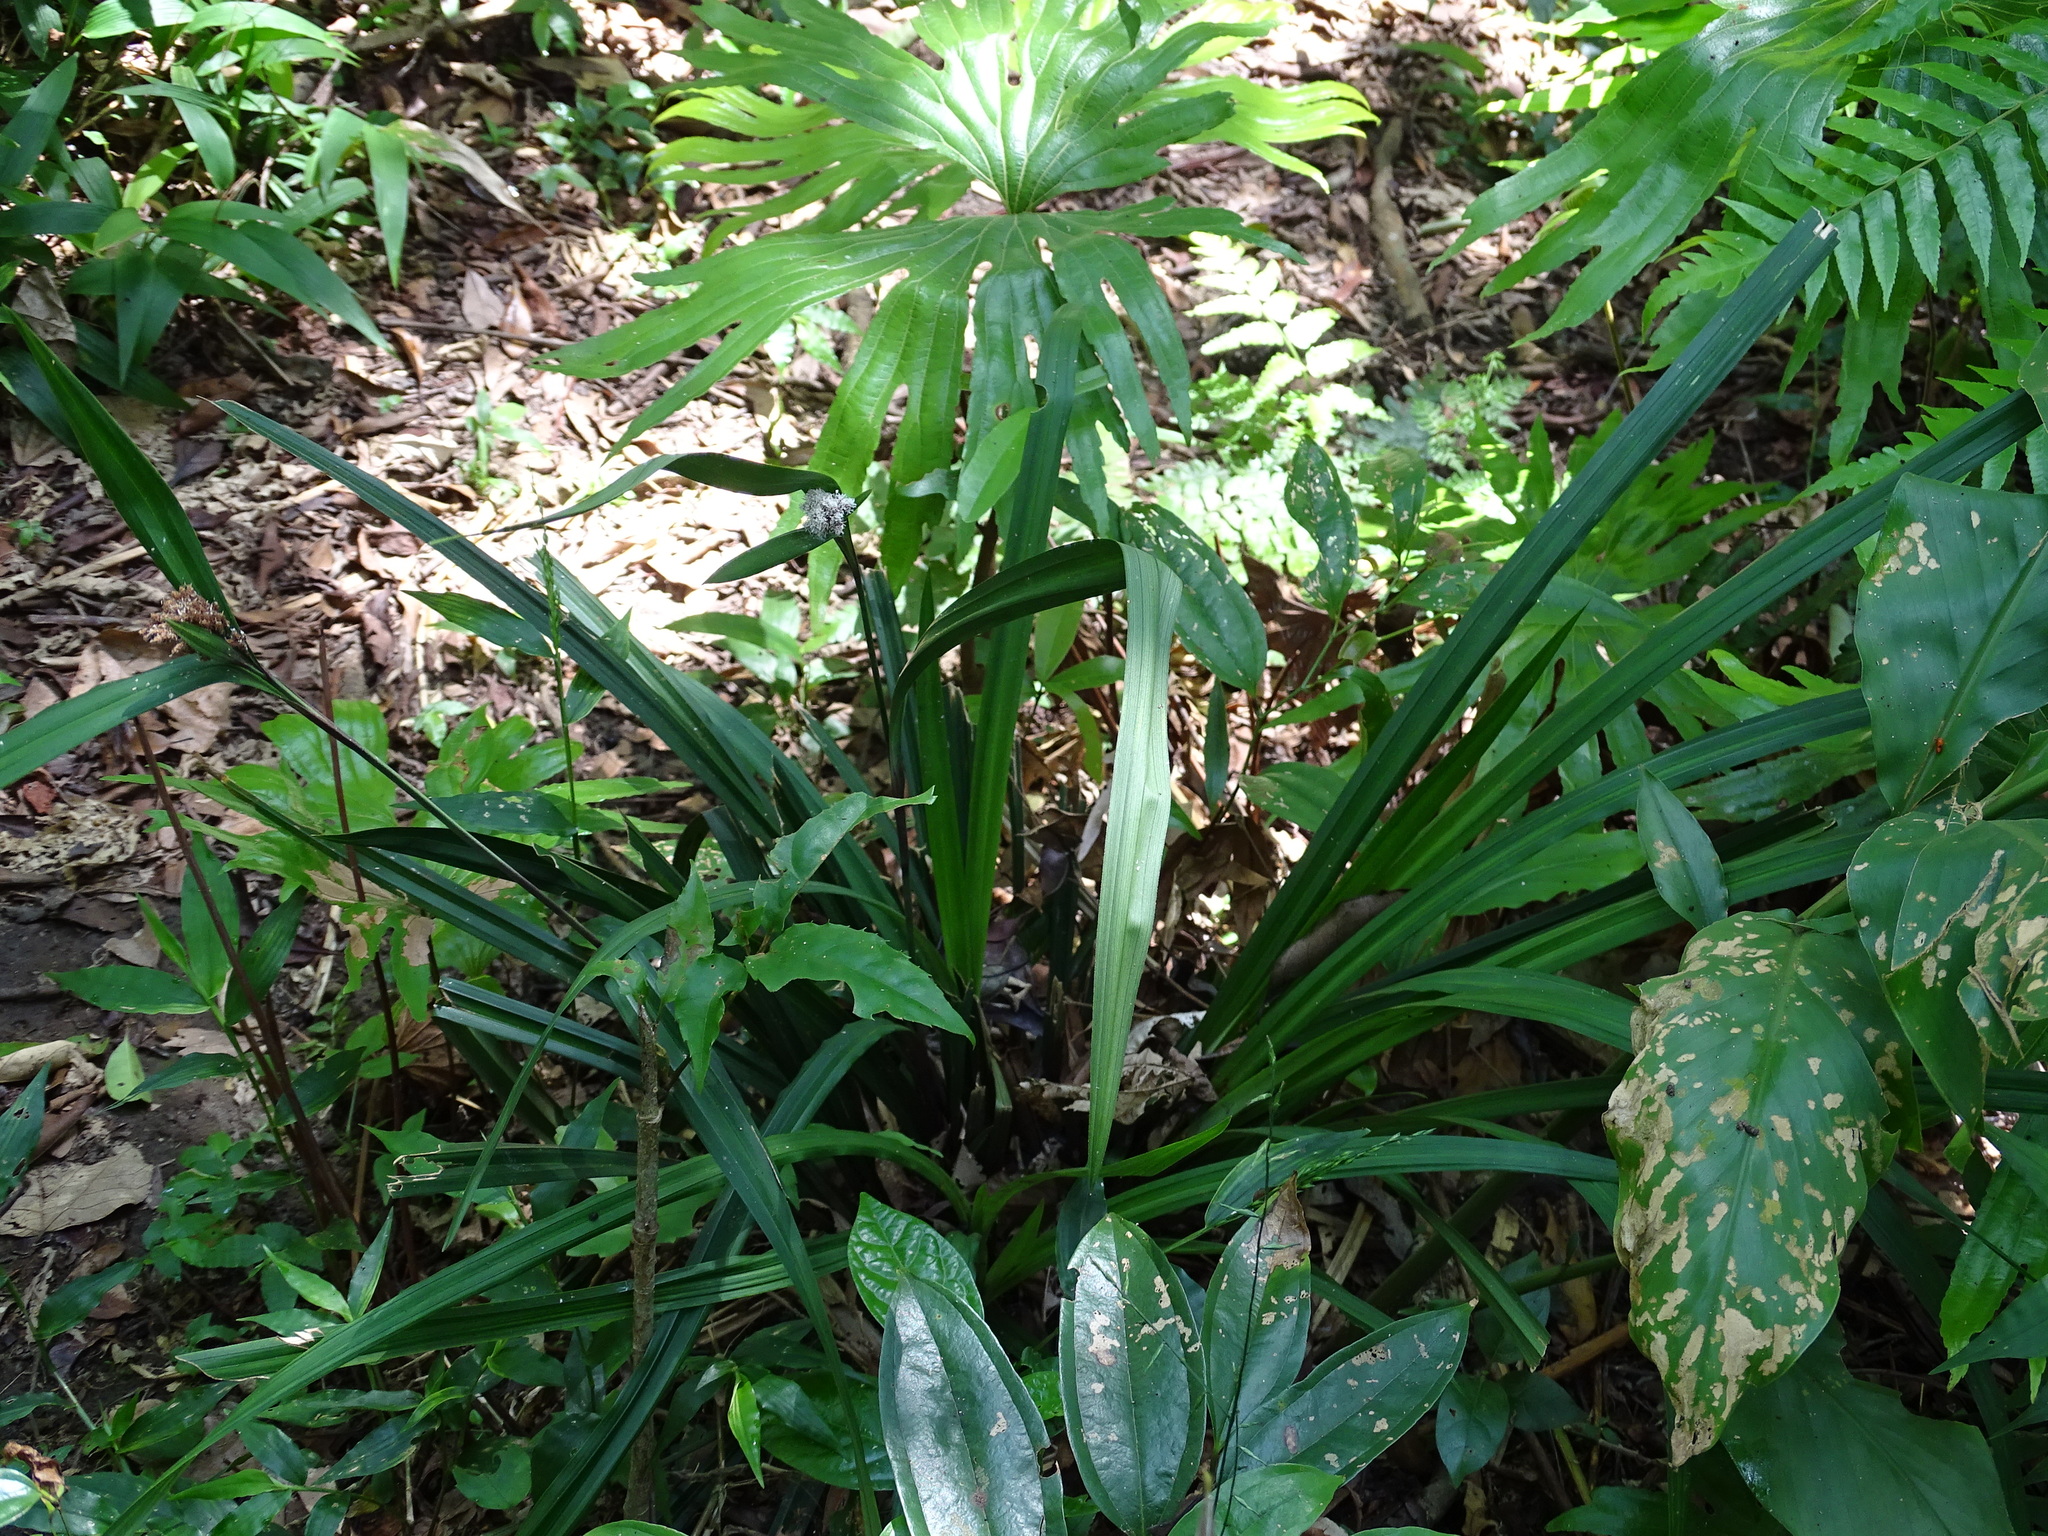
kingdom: Plantae
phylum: Tracheophyta
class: Liliopsida
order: Poales
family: Cyperaceae
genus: Hypolytrum
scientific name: Hypolytrum nemorum
